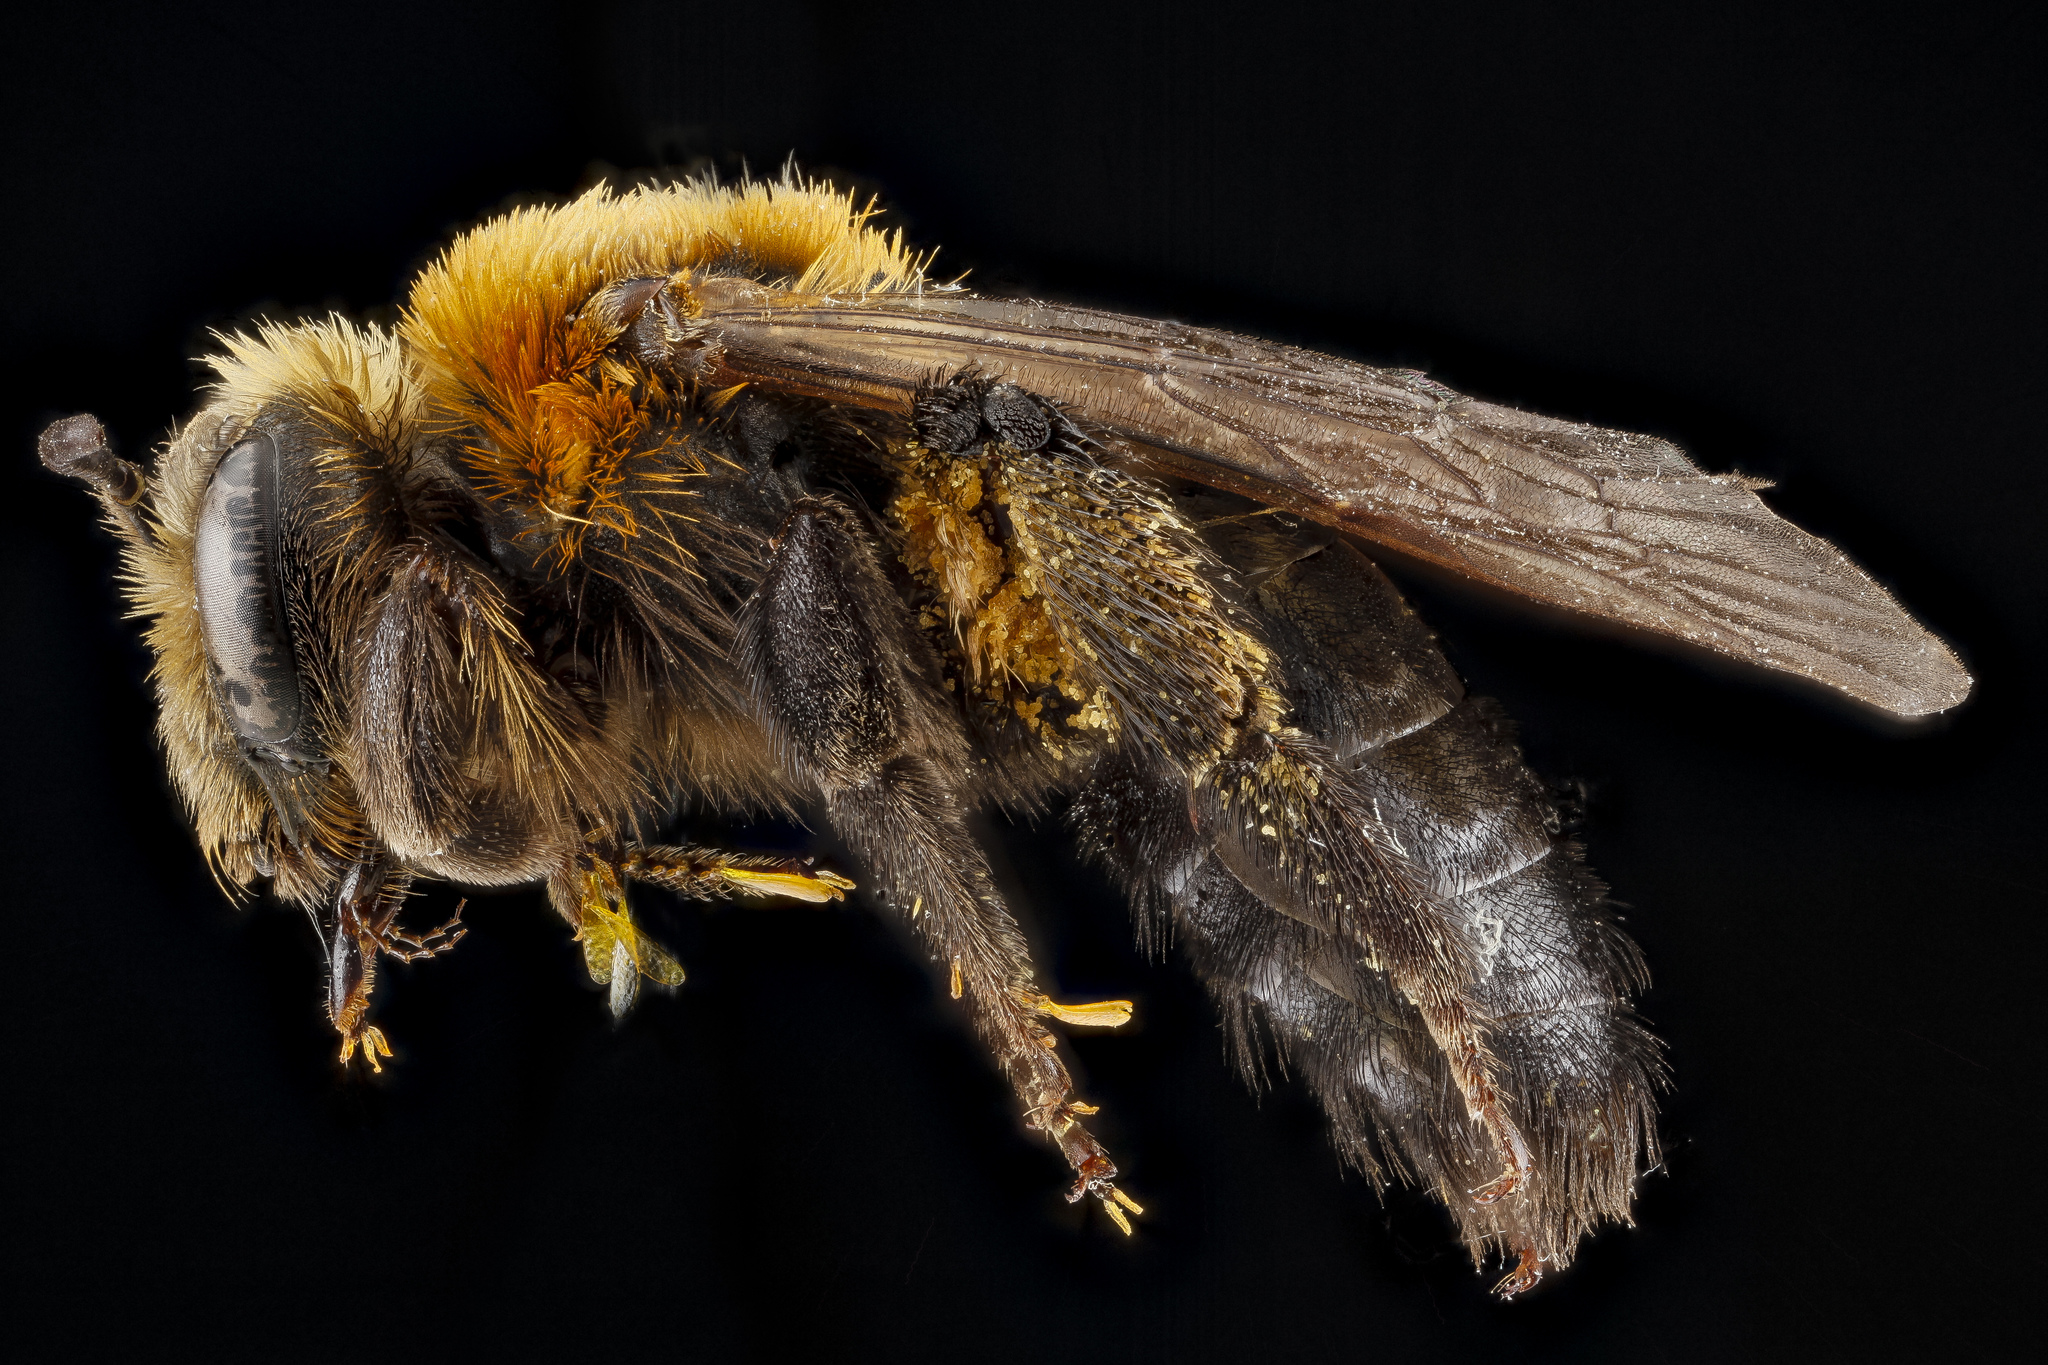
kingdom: Animalia
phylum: Arthropoda
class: Insecta
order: Hymenoptera
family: Andrenidae
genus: Andrena
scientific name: Andrena lupinorum
